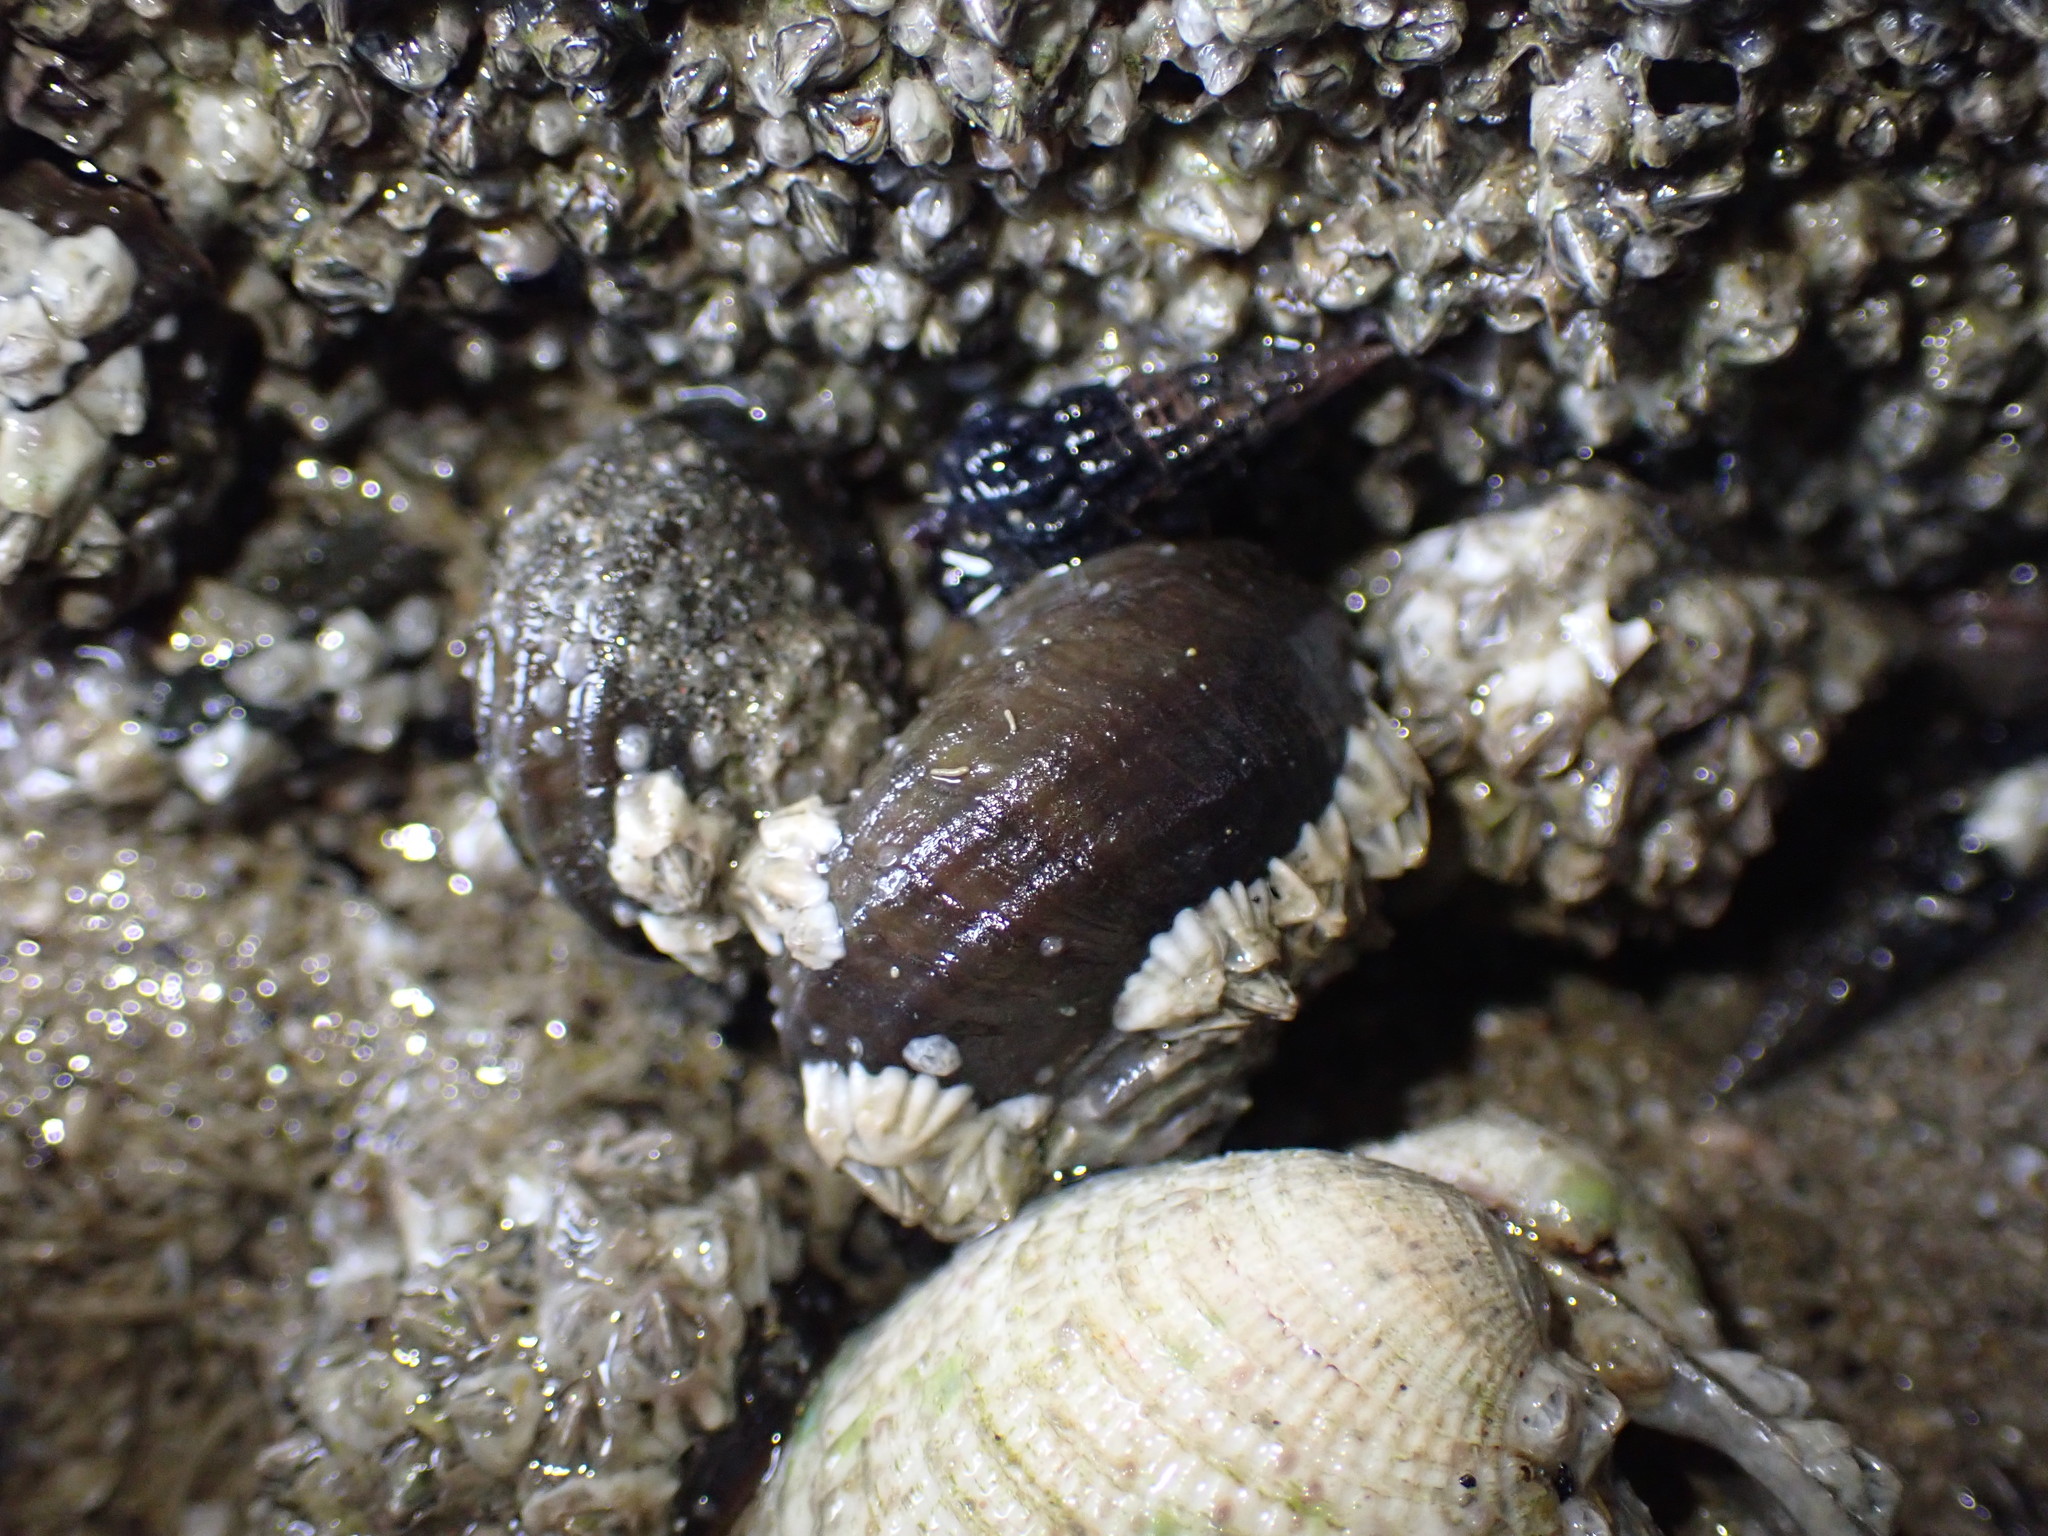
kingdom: Animalia
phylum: Mollusca
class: Gastropoda
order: Trochida
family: Turbinidae
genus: Lunella
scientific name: Lunella smaragda
